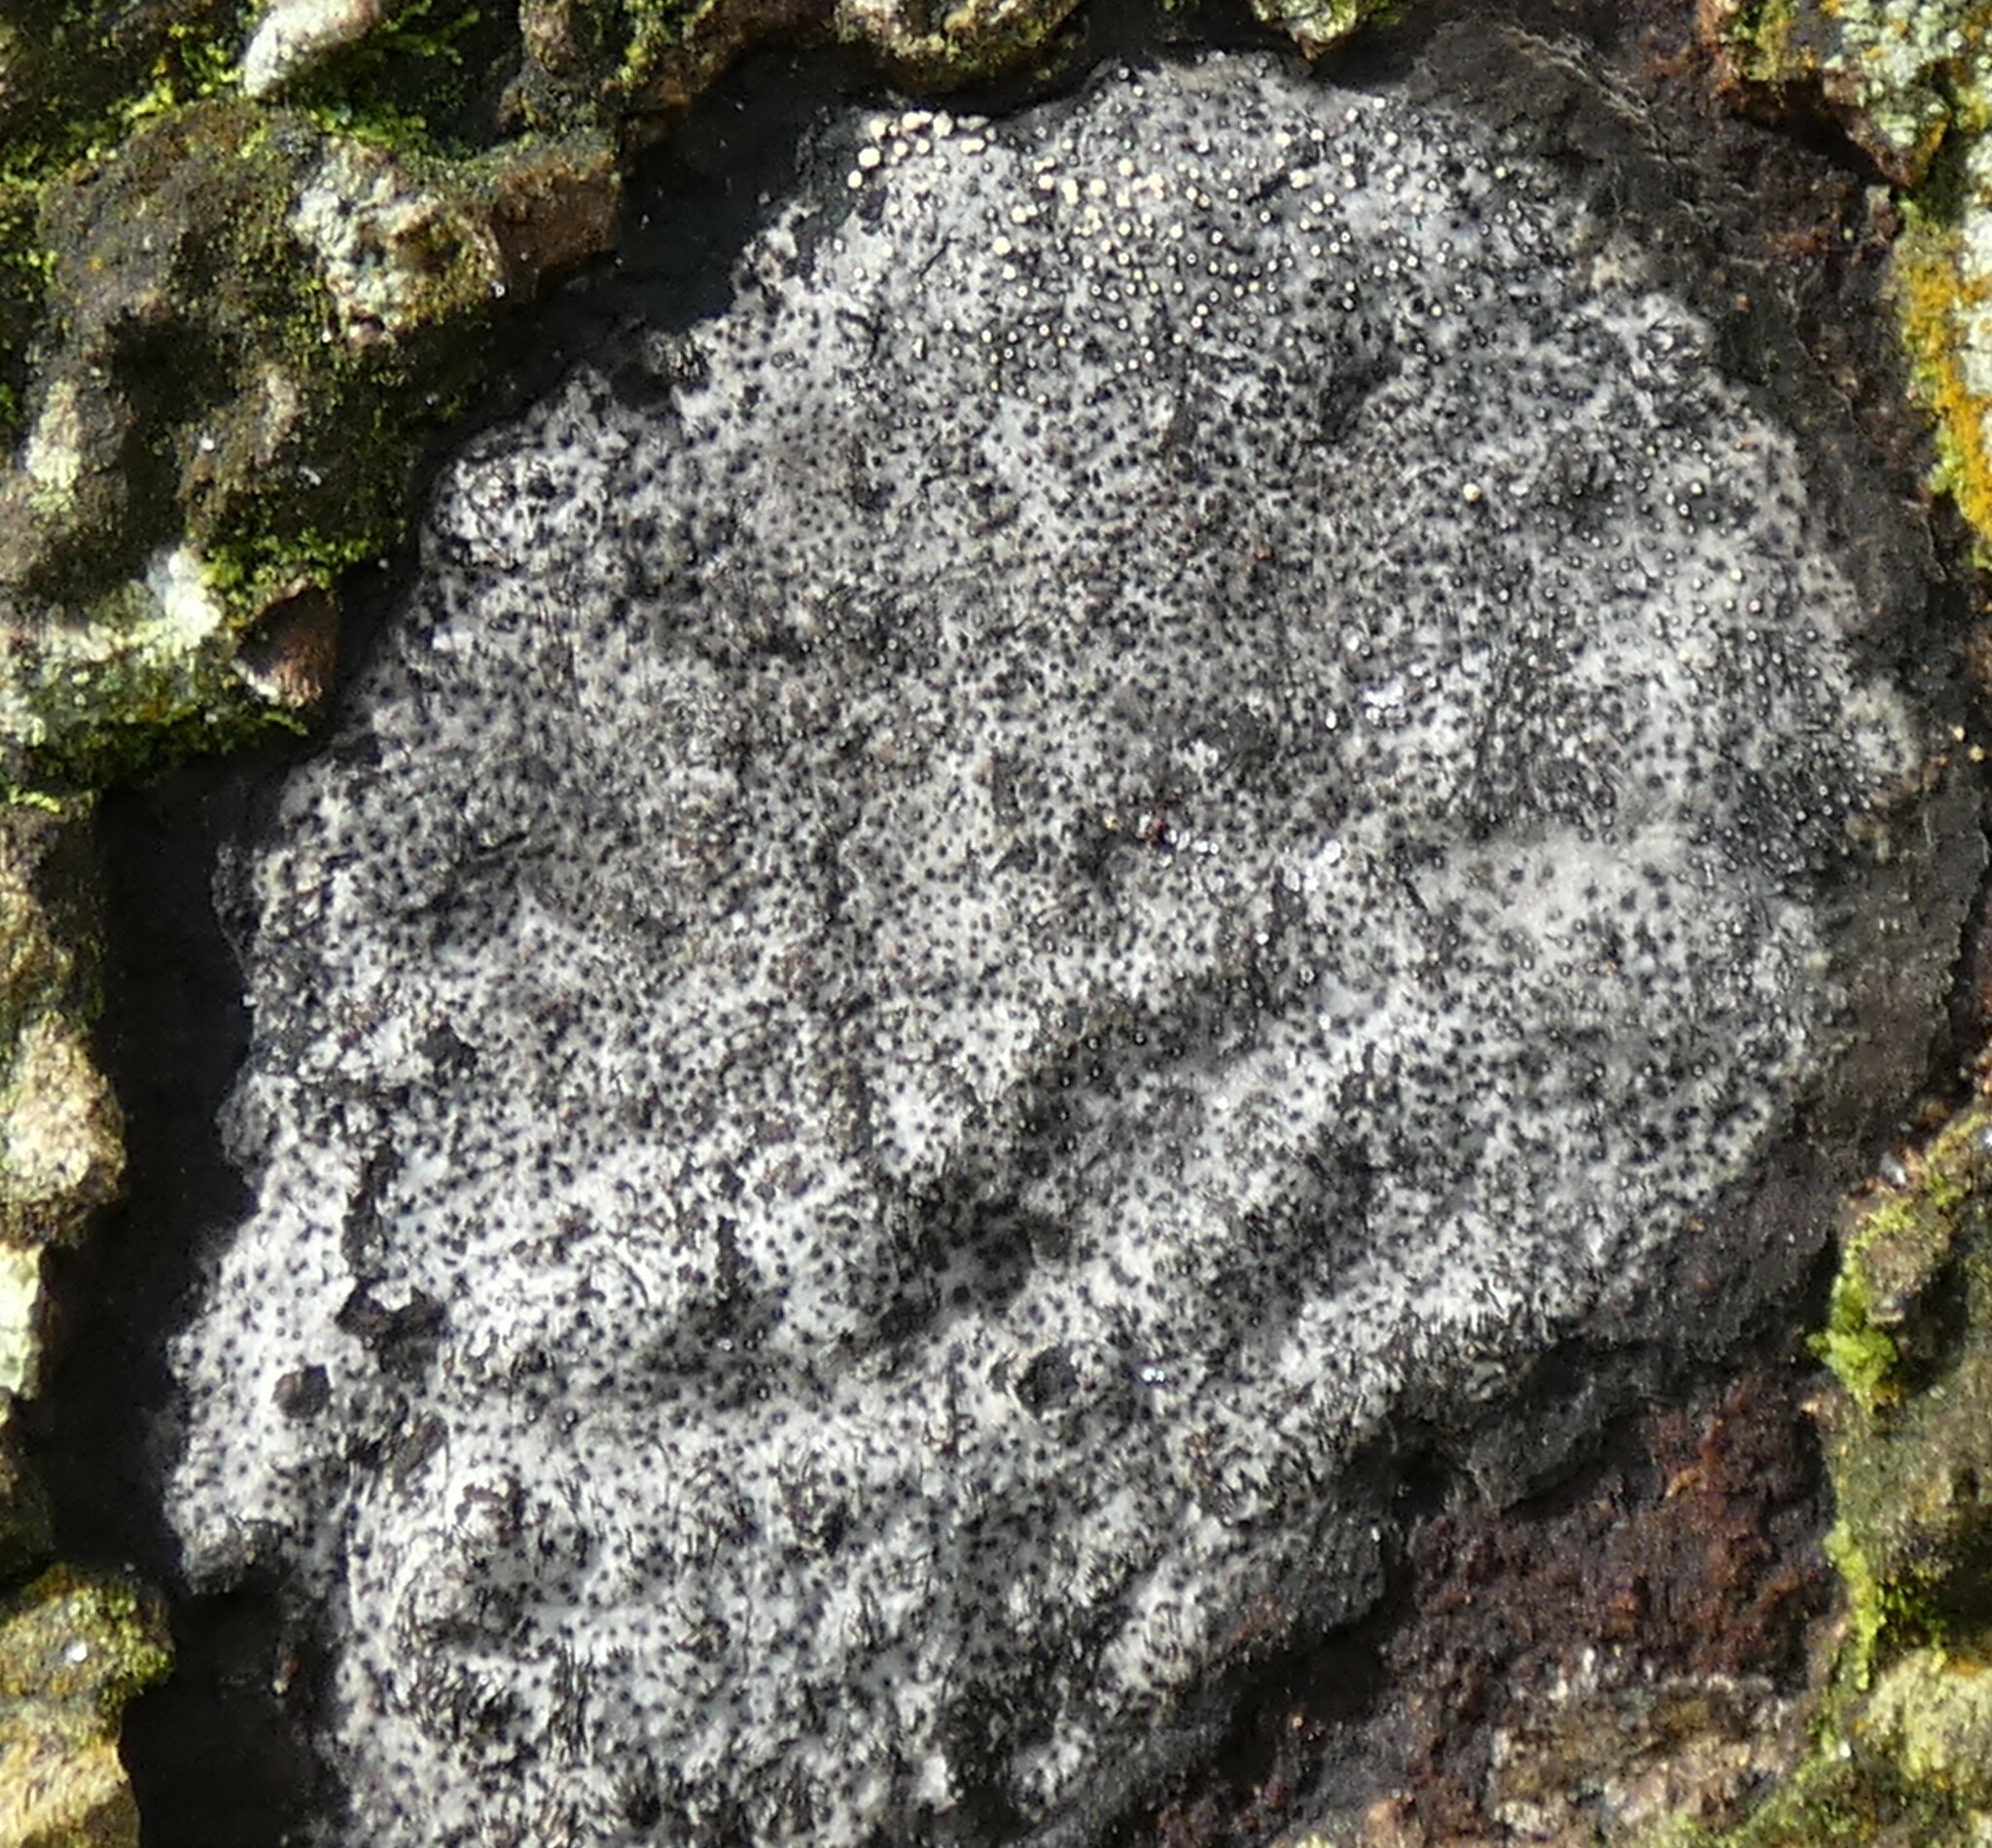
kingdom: Fungi
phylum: Ascomycota
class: Sordariomycetes
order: Xylariales
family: Graphostromataceae
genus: Biscogniauxia
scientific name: Biscogniauxia atropunctata
